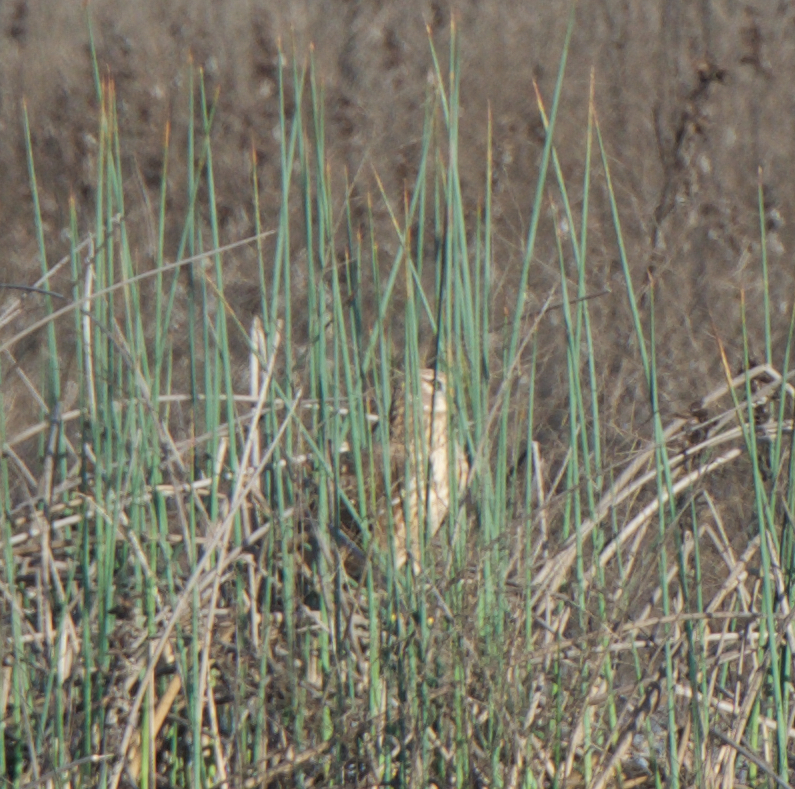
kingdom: Animalia
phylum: Chordata
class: Aves
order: Accipitriformes
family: Accipitridae
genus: Circus
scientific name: Circus cyaneus
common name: Hen harrier
